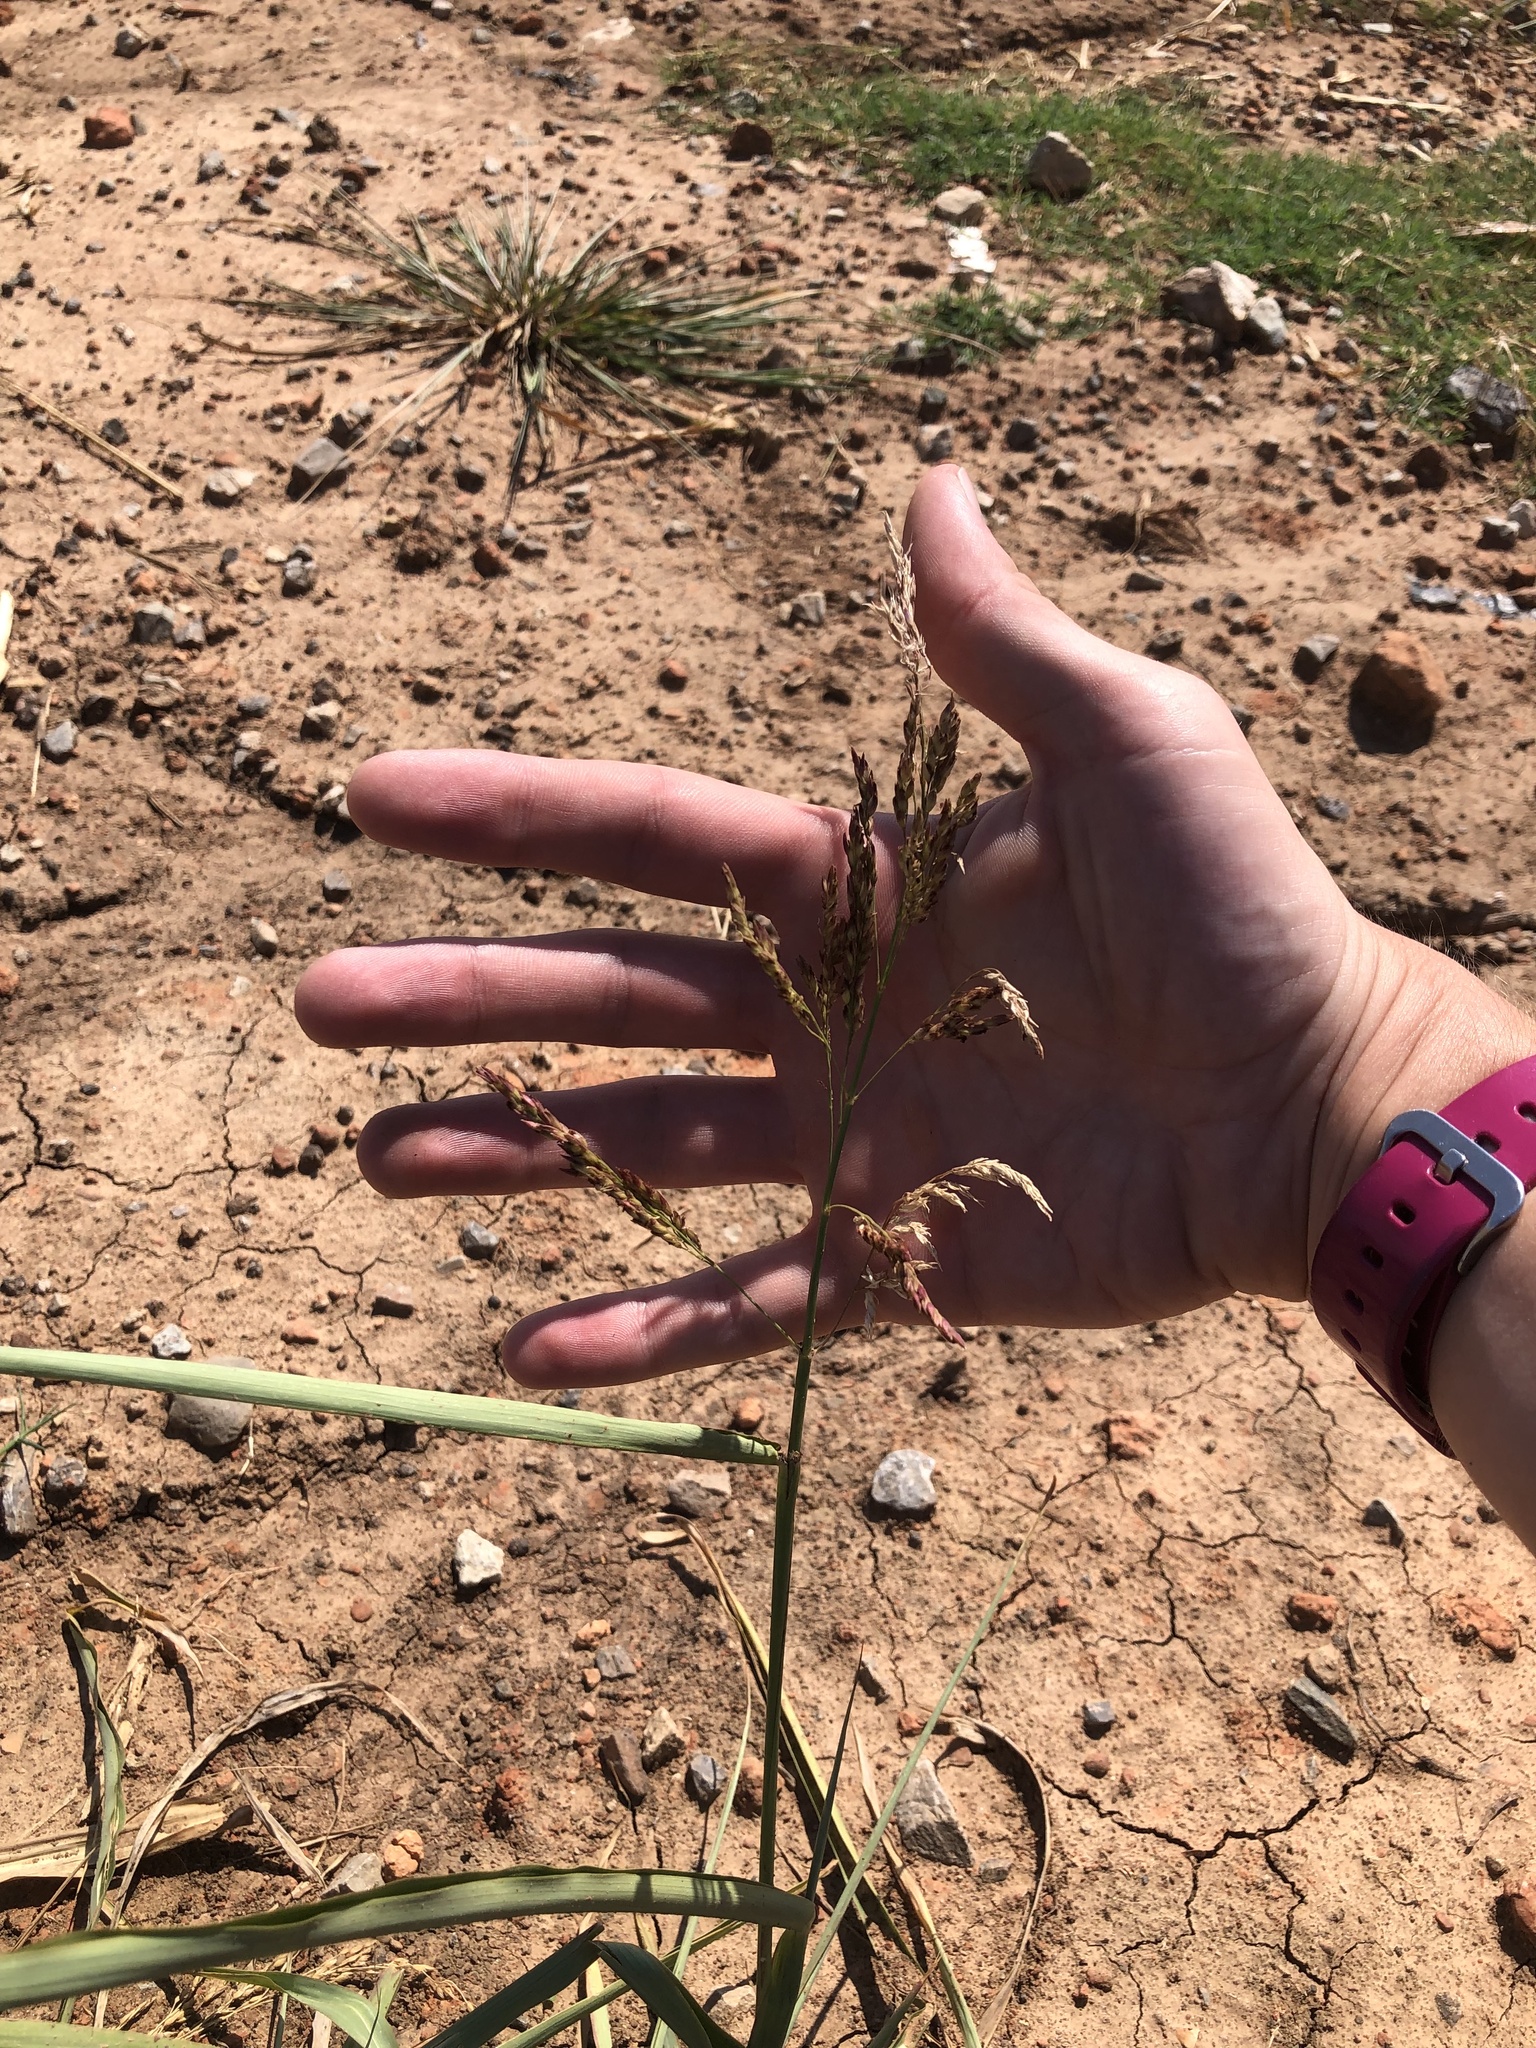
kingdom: Plantae
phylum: Tracheophyta
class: Liliopsida
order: Poales
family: Poaceae
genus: Sorghum
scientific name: Sorghum halepense
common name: Johnson-grass
